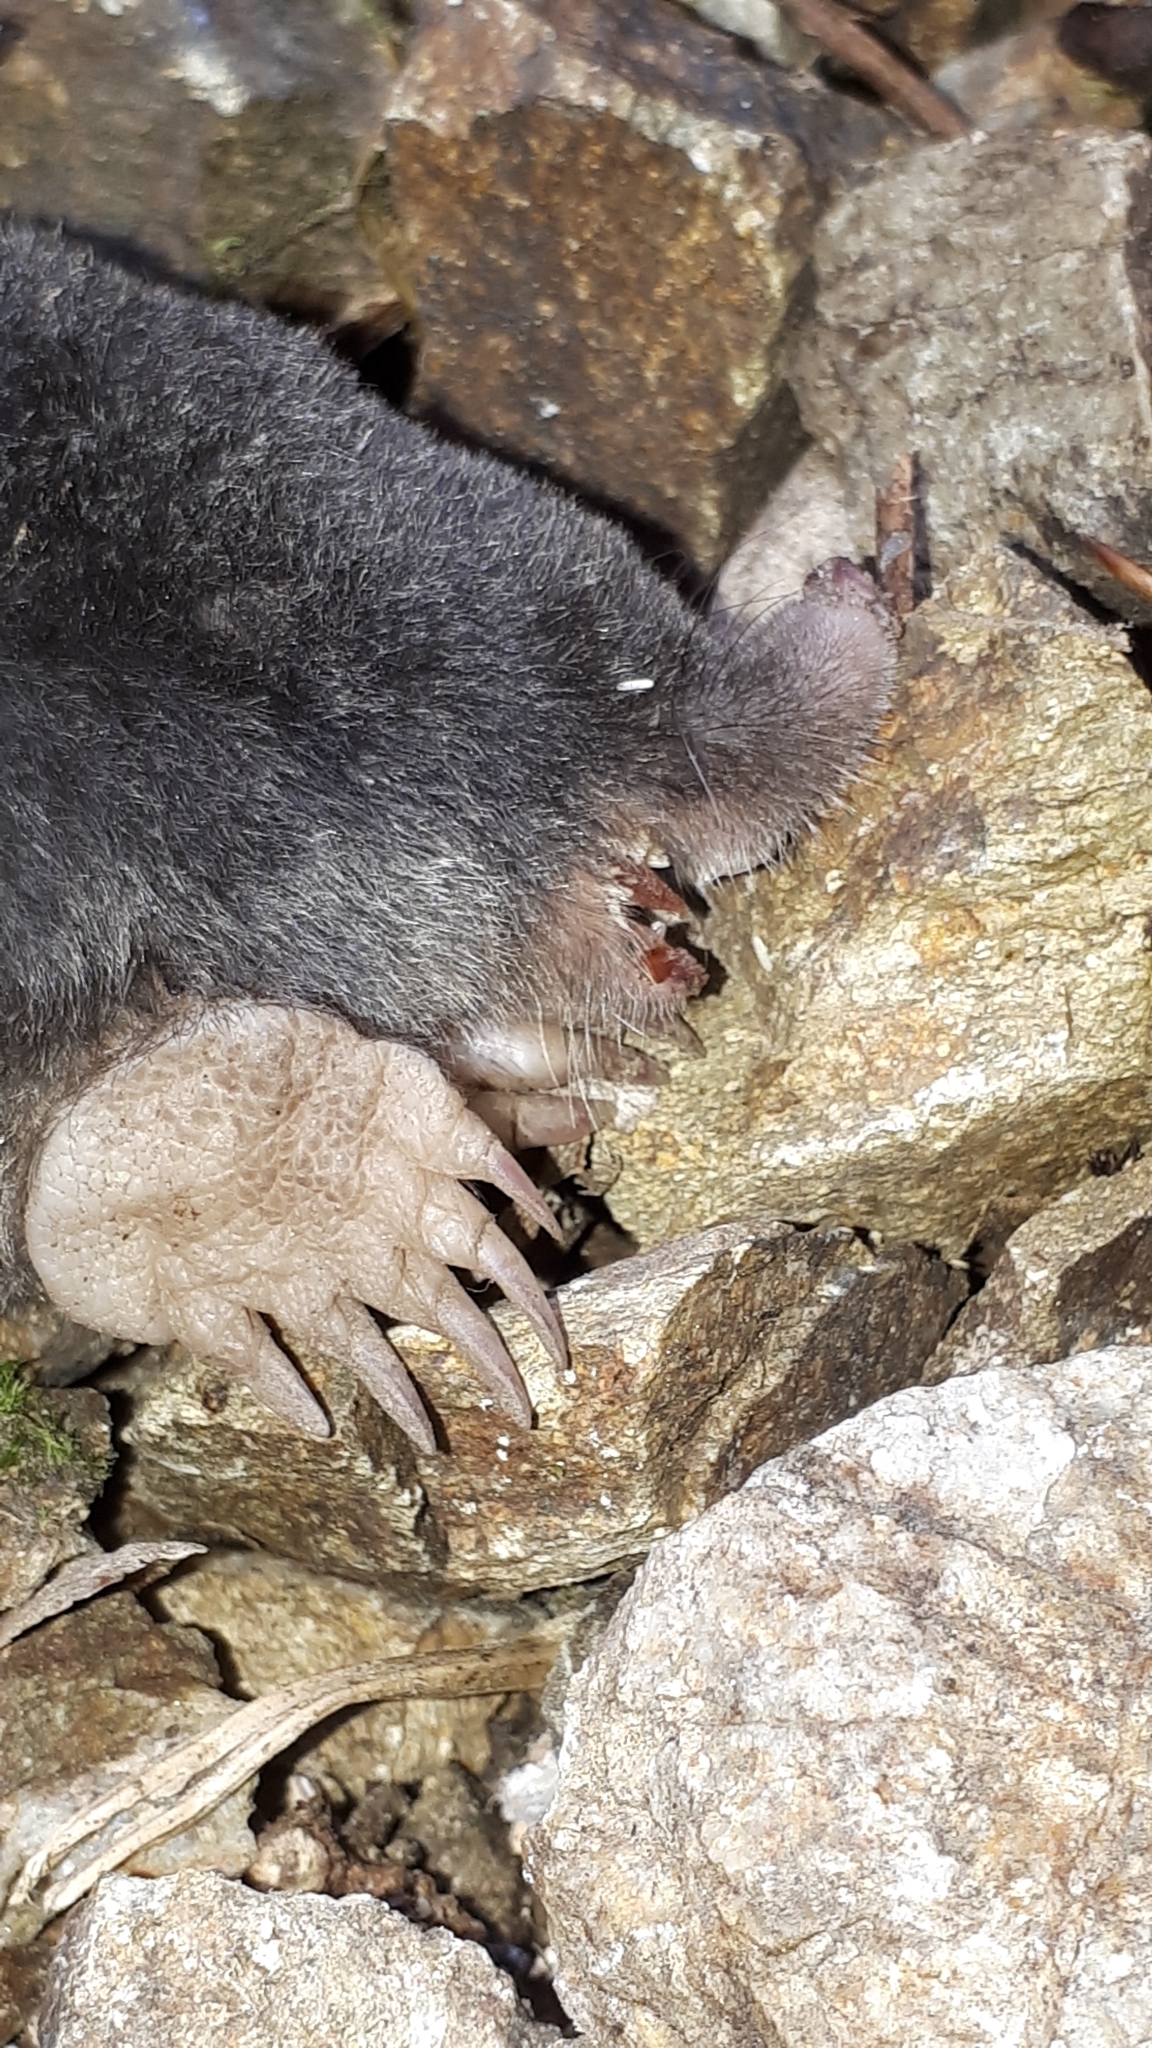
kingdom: Animalia
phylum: Chordata
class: Mammalia
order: Soricomorpha
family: Talpidae
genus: Talpa
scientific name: Talpa europaea
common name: European mole
